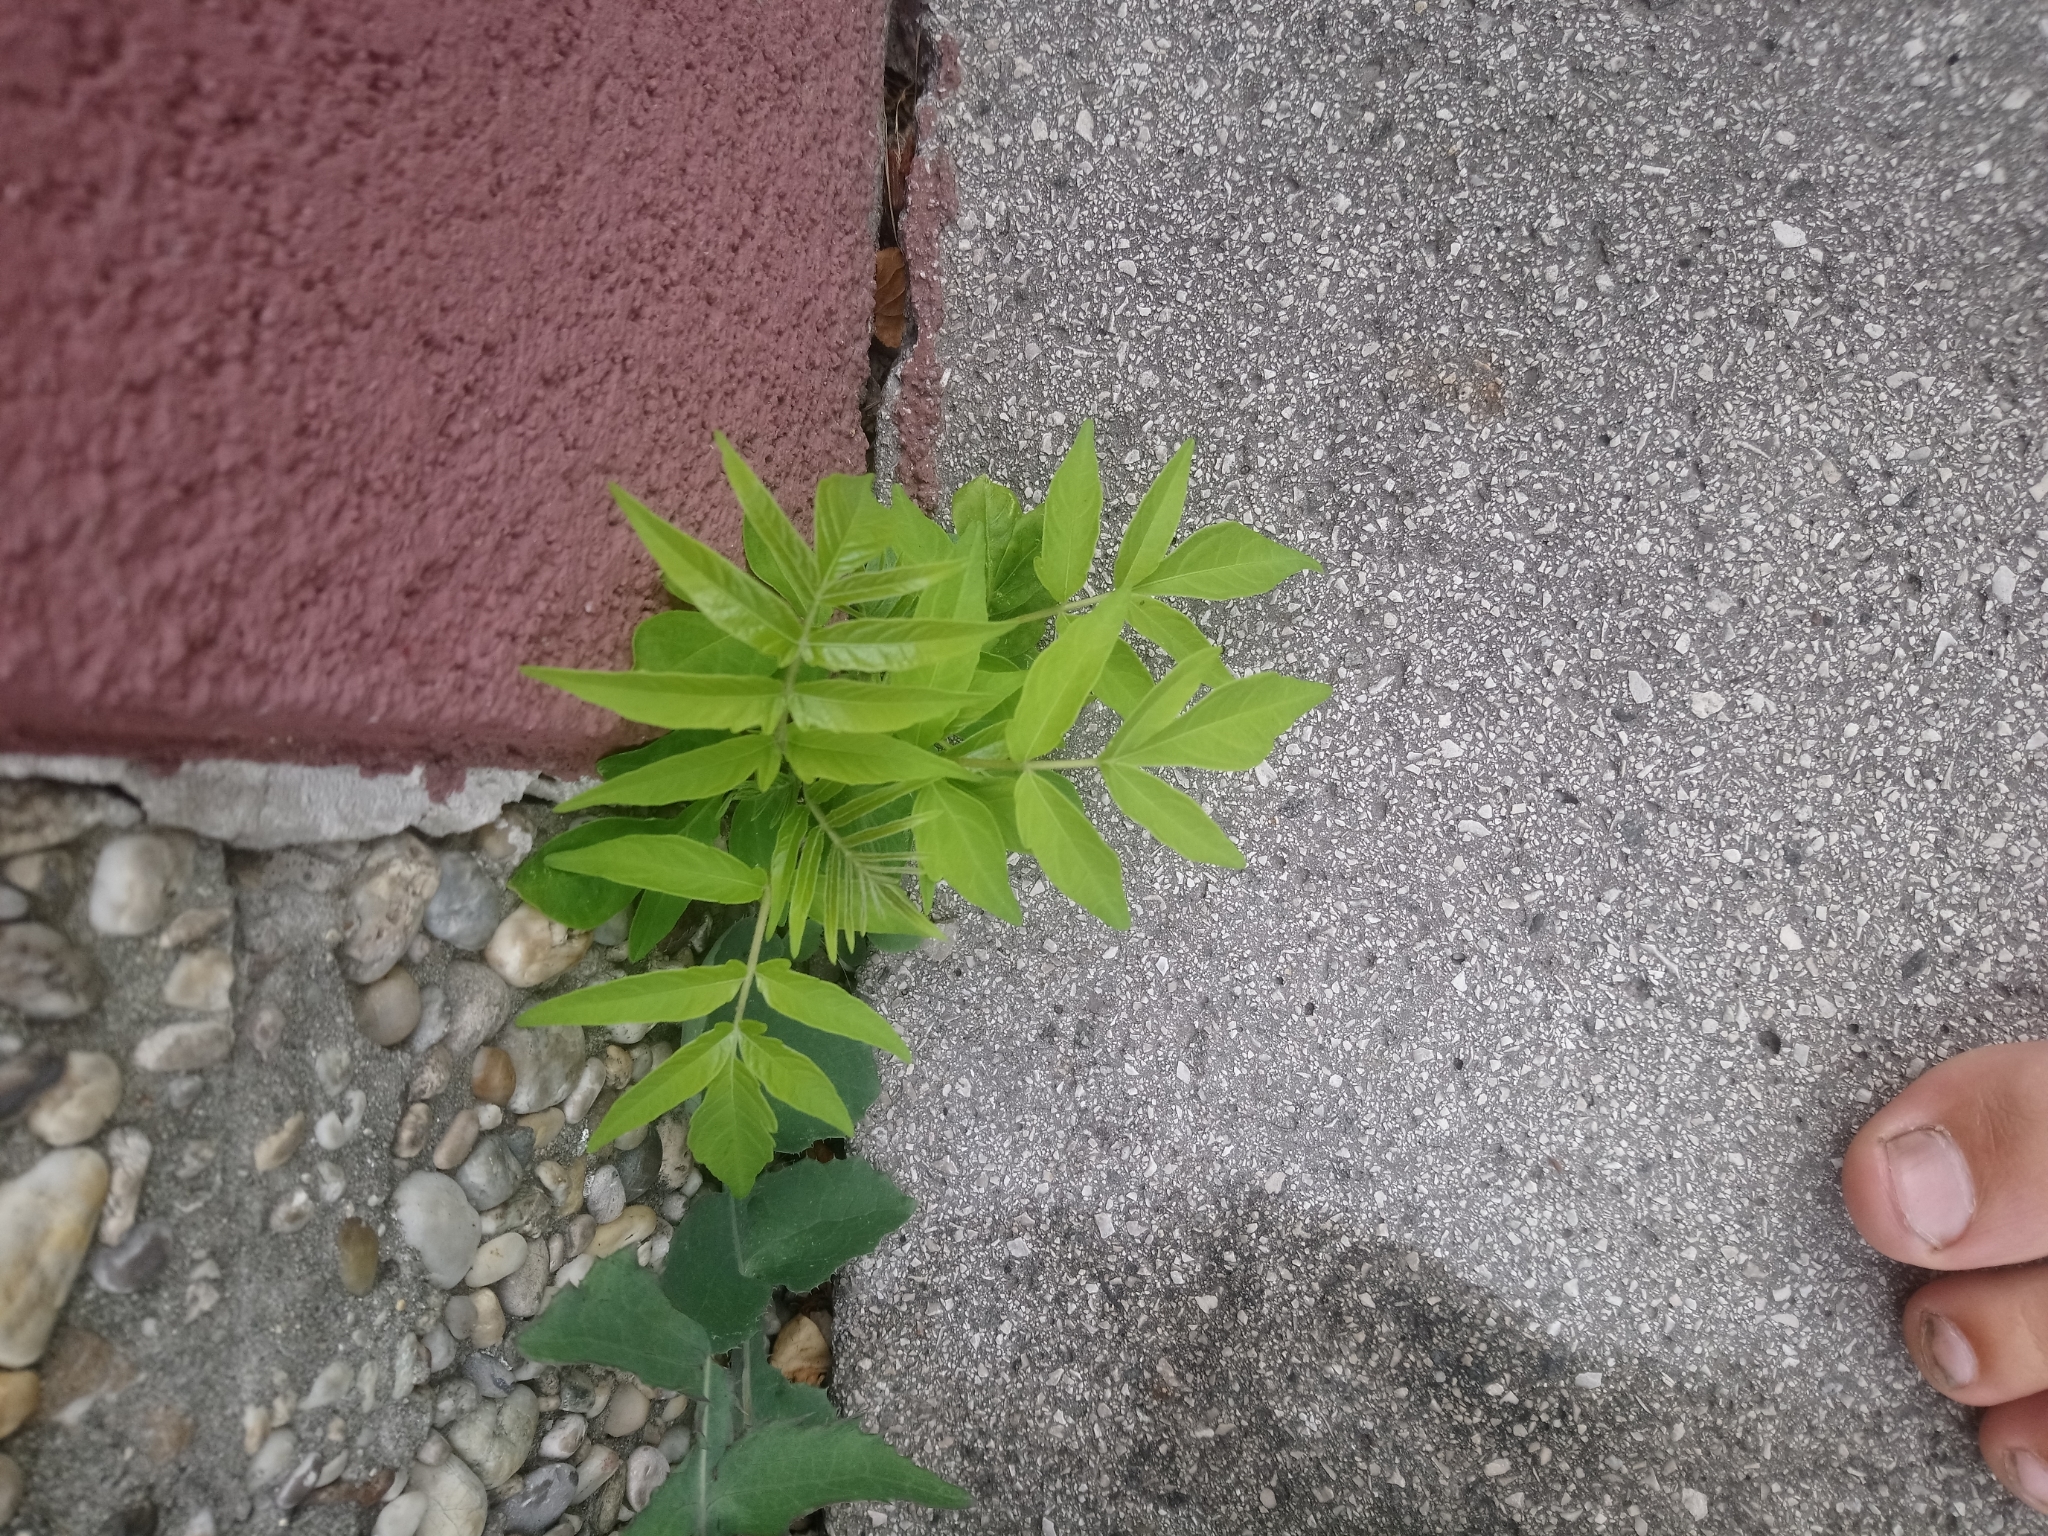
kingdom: Plantae
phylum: Tracheophyta
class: Magnoliopsida
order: Sapindales
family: Simaroubaceae
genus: Ailanthus
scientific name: Ailanthus altissima
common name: Tree-of-heaven
